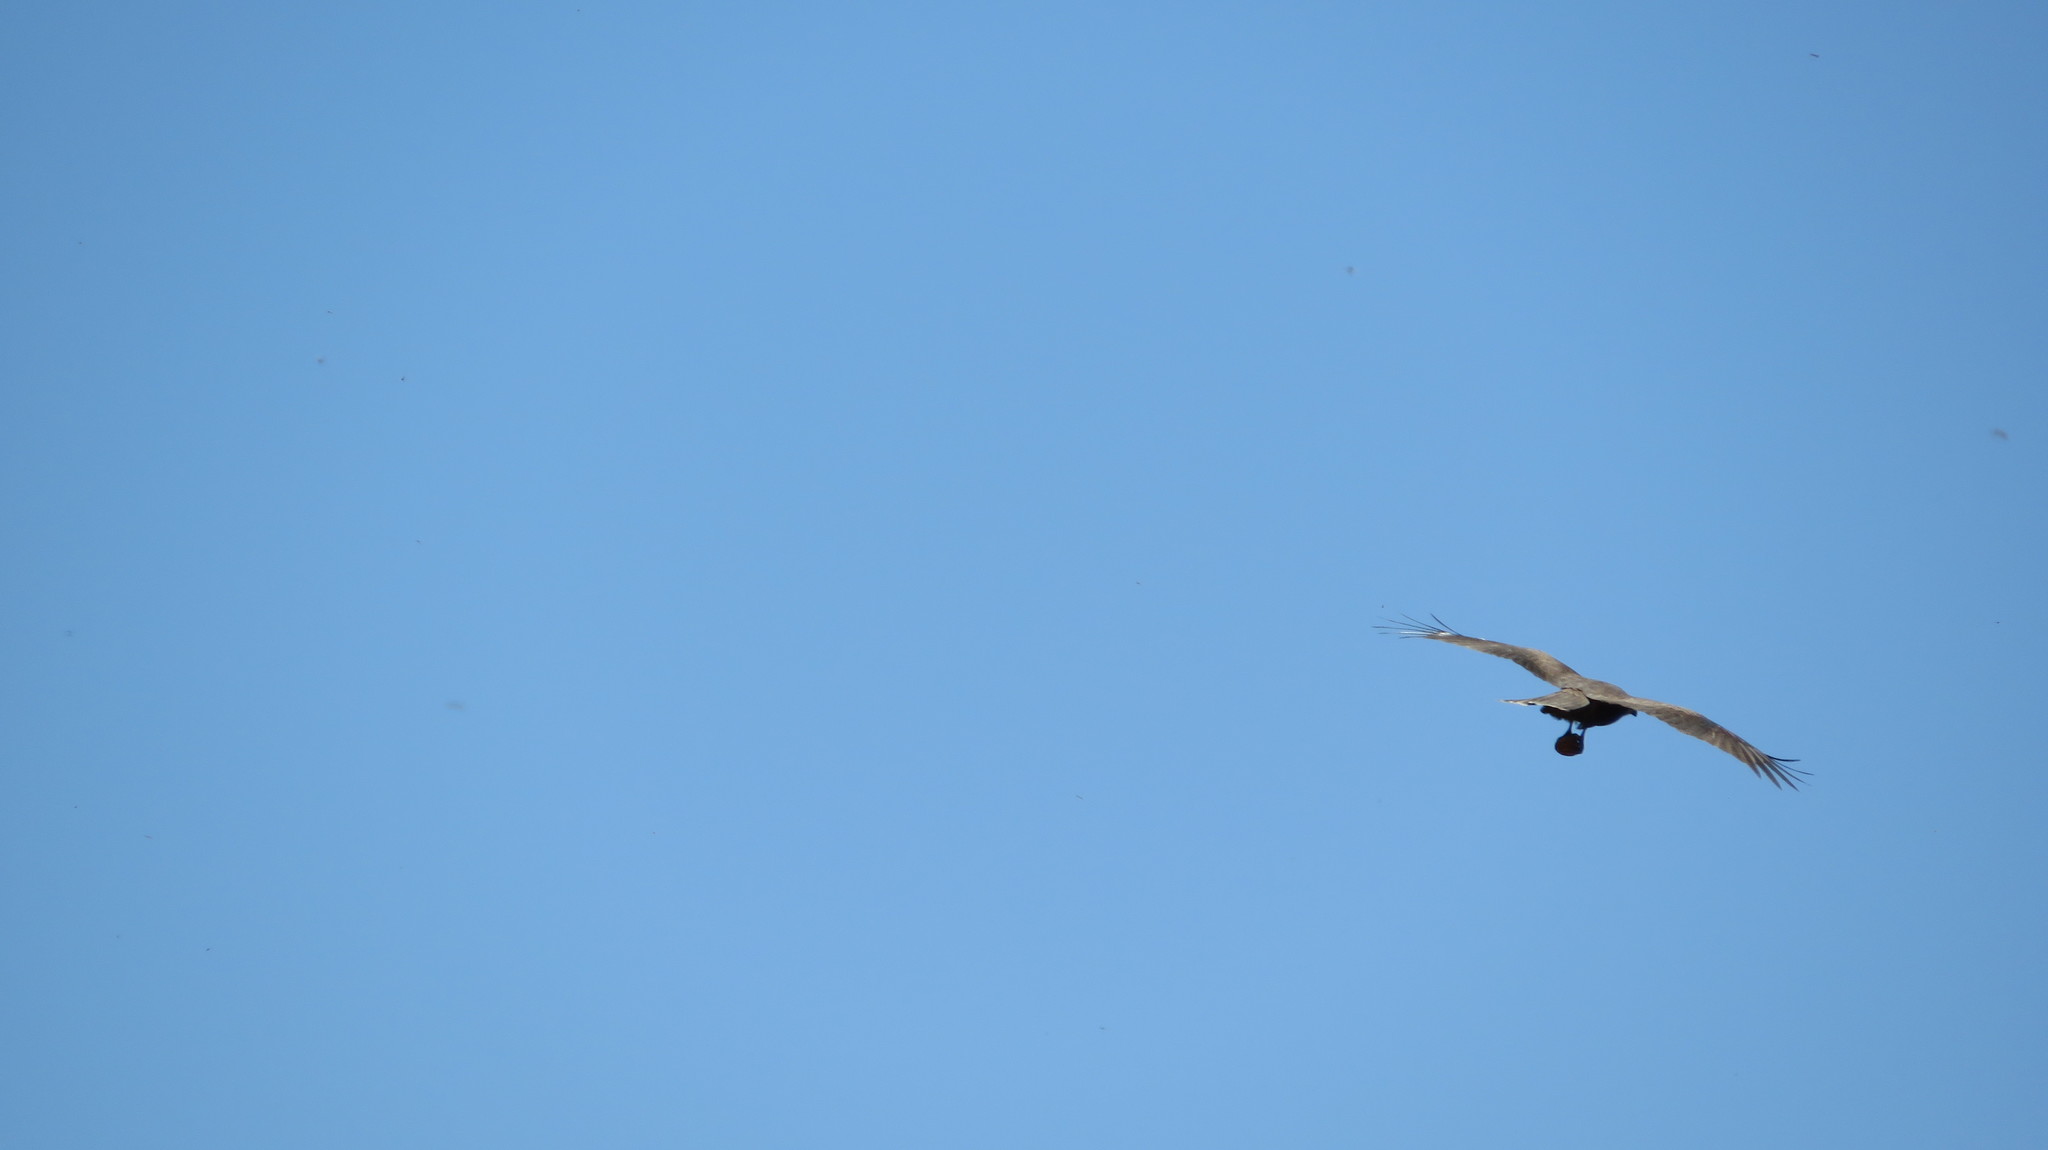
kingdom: Animalia
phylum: Chordata
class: Aves
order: Accipitriformes
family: Accipitridae
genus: Milvus
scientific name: Milvus migrans
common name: Black kite
